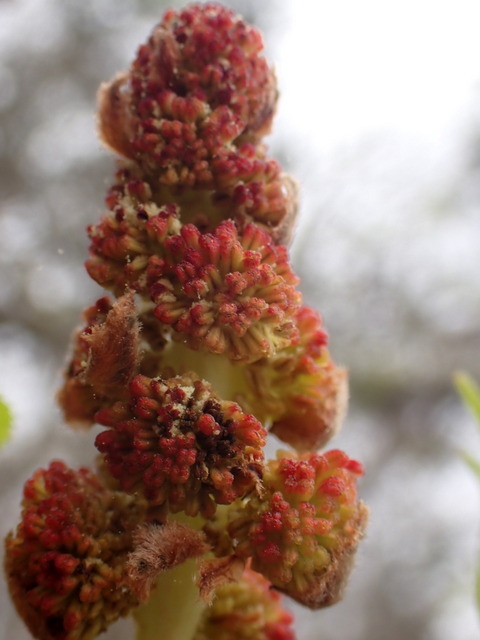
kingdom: Plantae
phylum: Tracheophyta
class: Magnoliopsida
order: Saxifragales
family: Altingiaceae
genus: Liquidambar
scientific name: Liquidambar styraciflua
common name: Sweet gum
